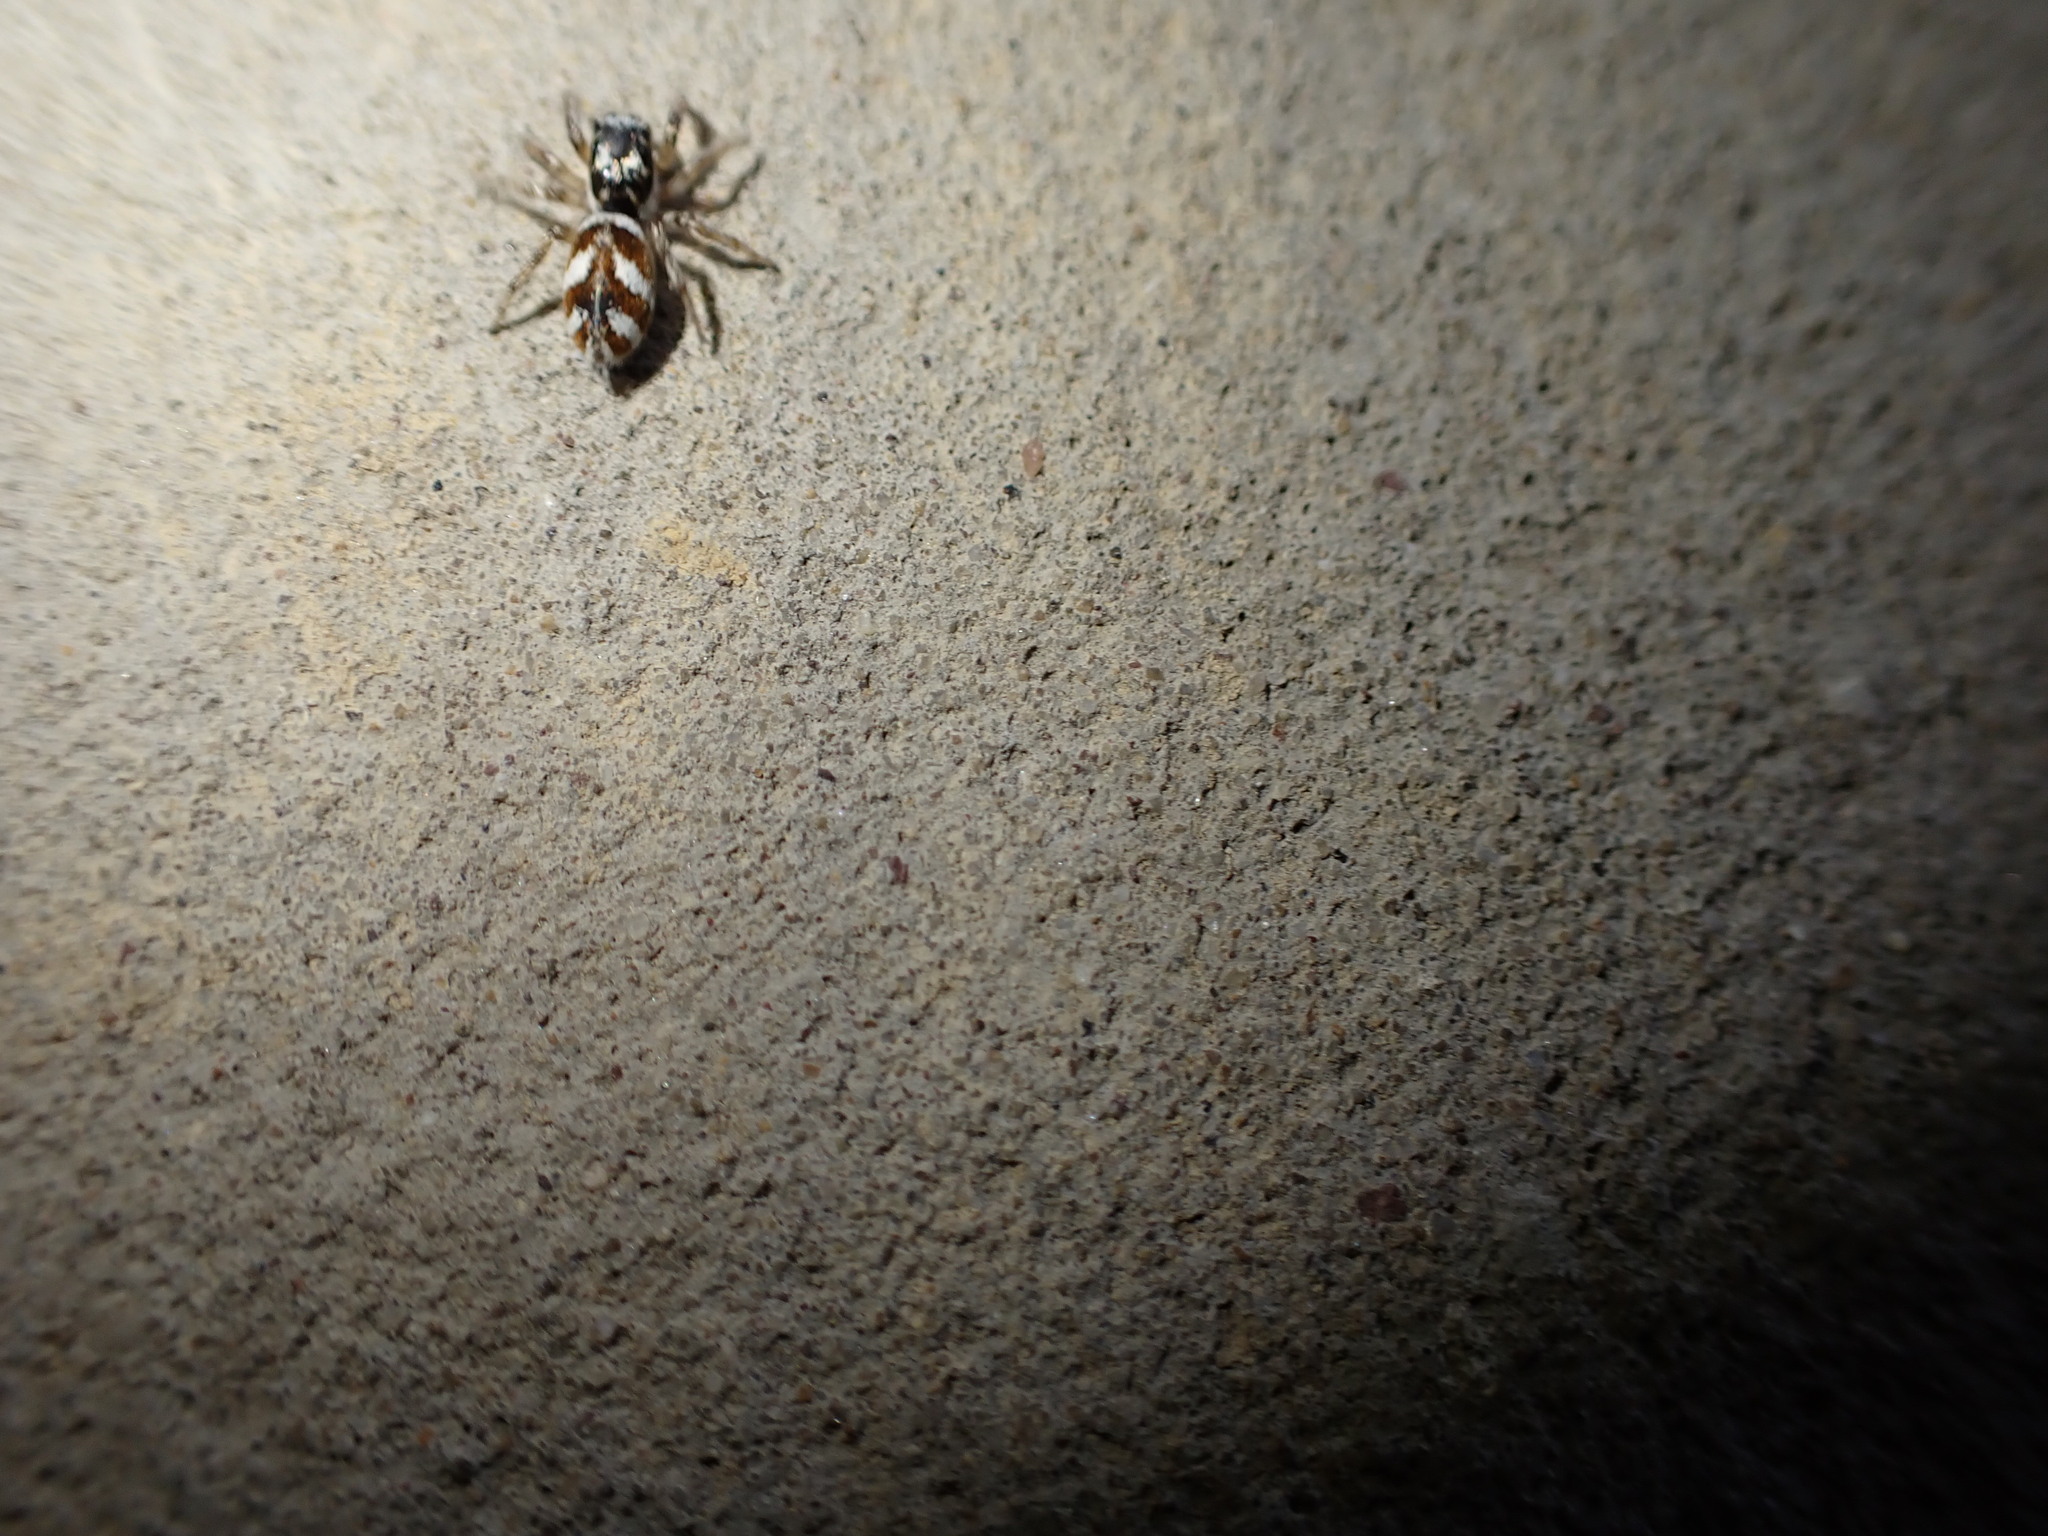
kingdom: Animalia
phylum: Arthropoda
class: Arachnida
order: Araneae
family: Salticidae
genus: Salticus
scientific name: Salticus scenicus
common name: Zebra jumper
